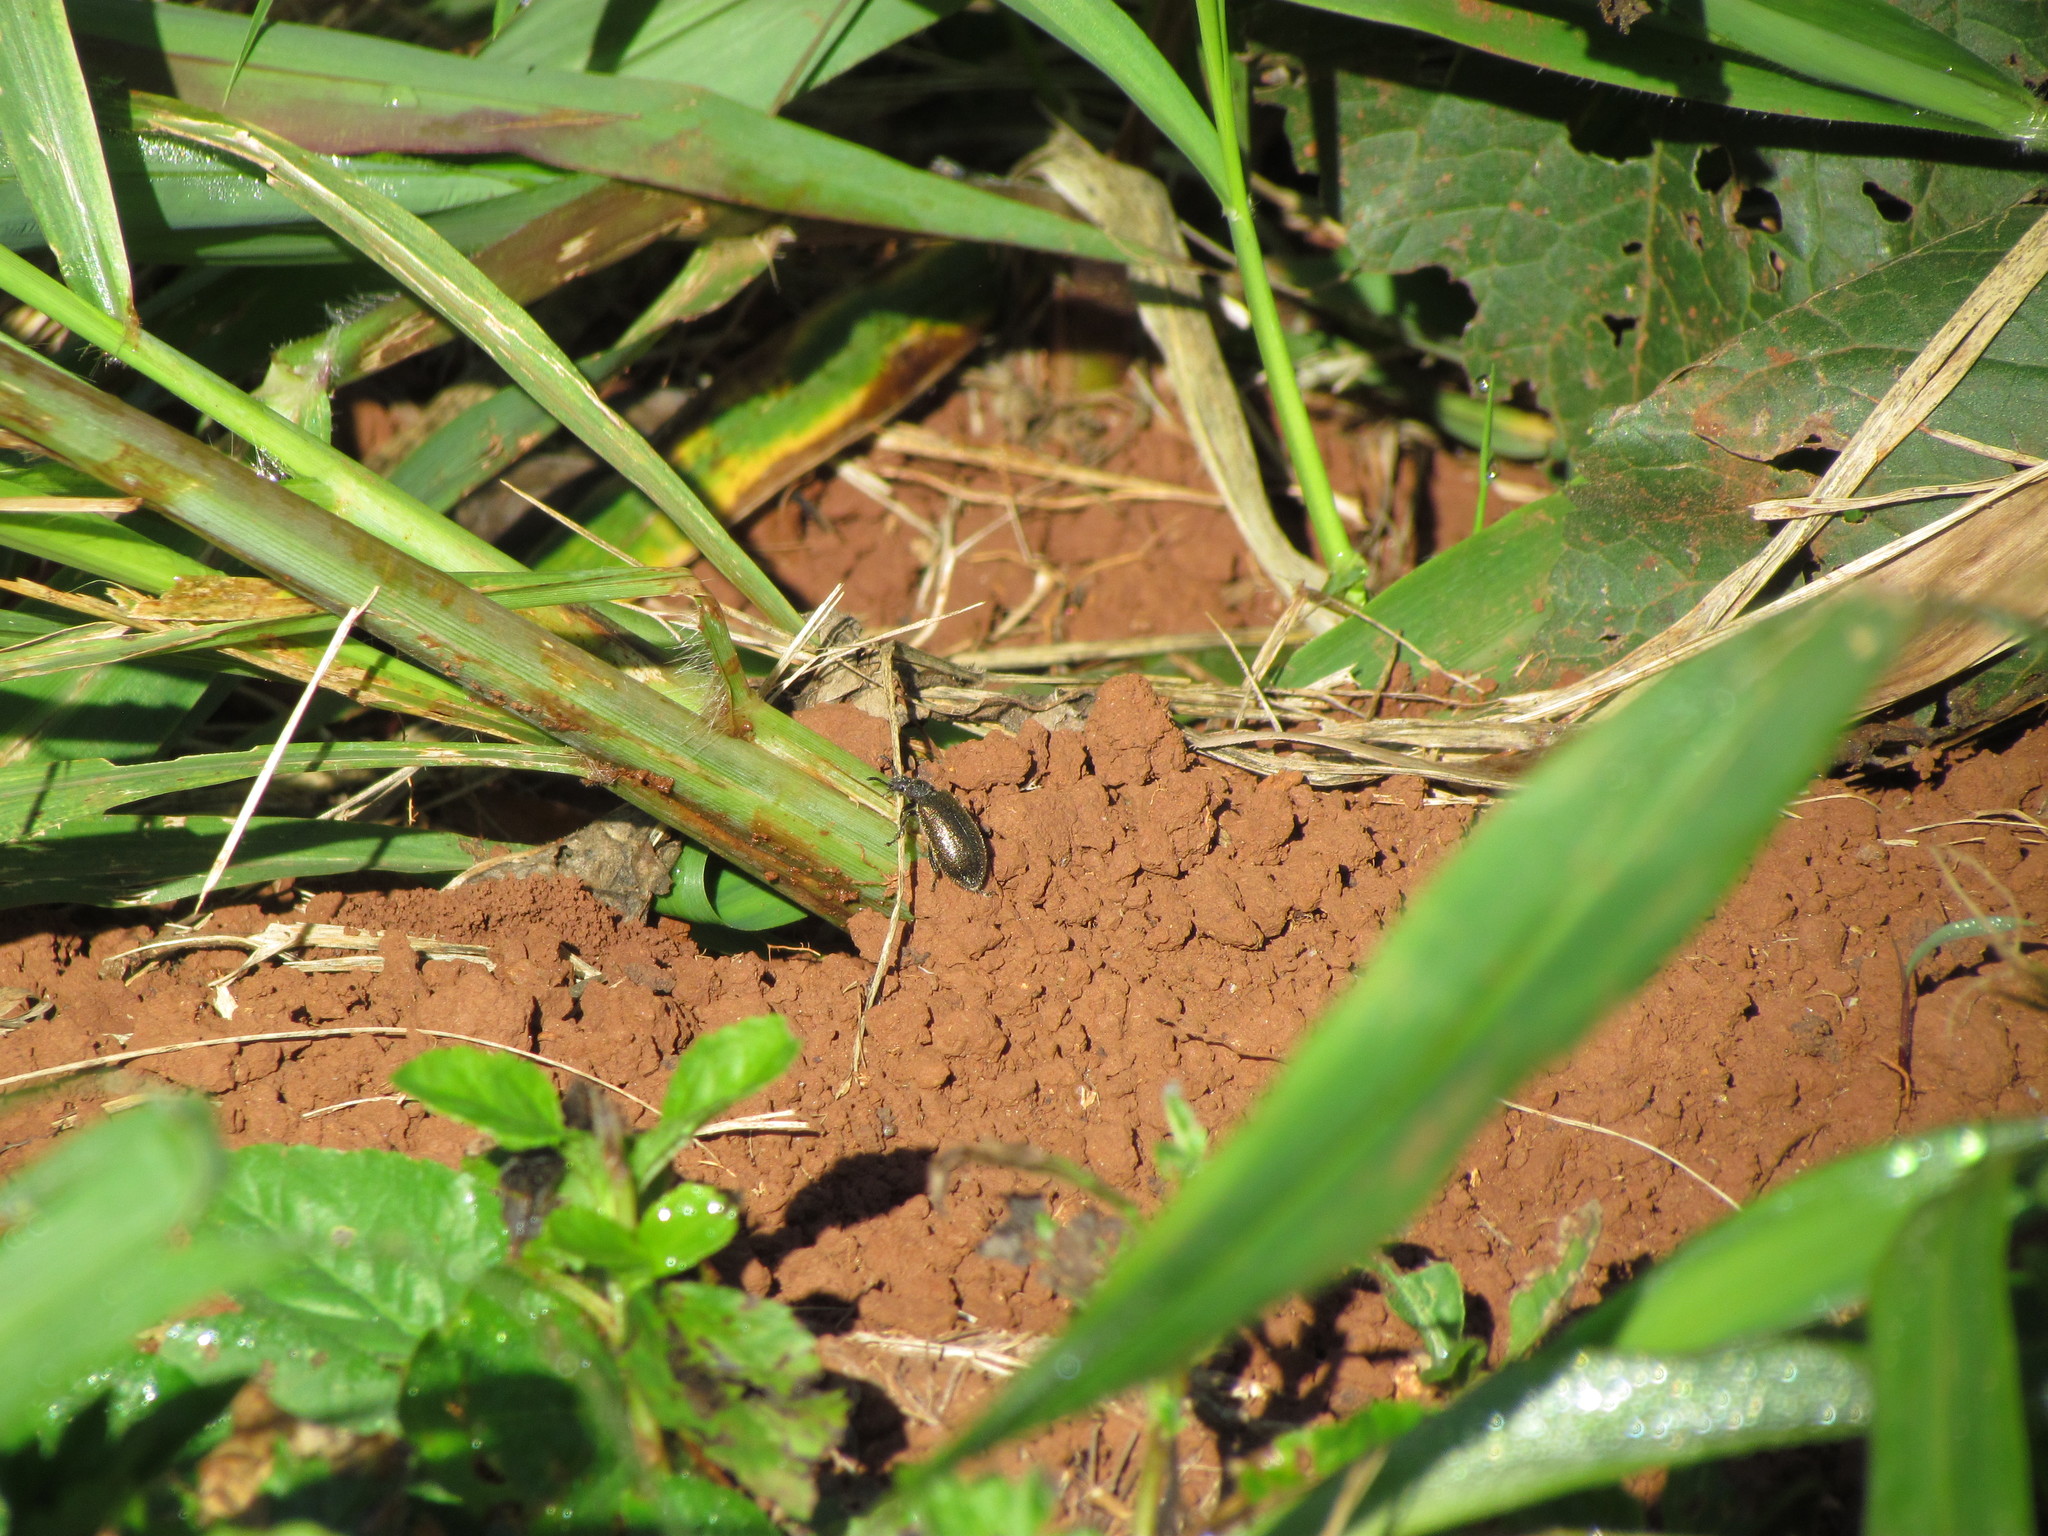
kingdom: Animalia
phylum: Arthropoda
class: Insecta
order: Coleoptera
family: Tenebrionidae
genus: Lagria
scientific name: Lagria villosa
